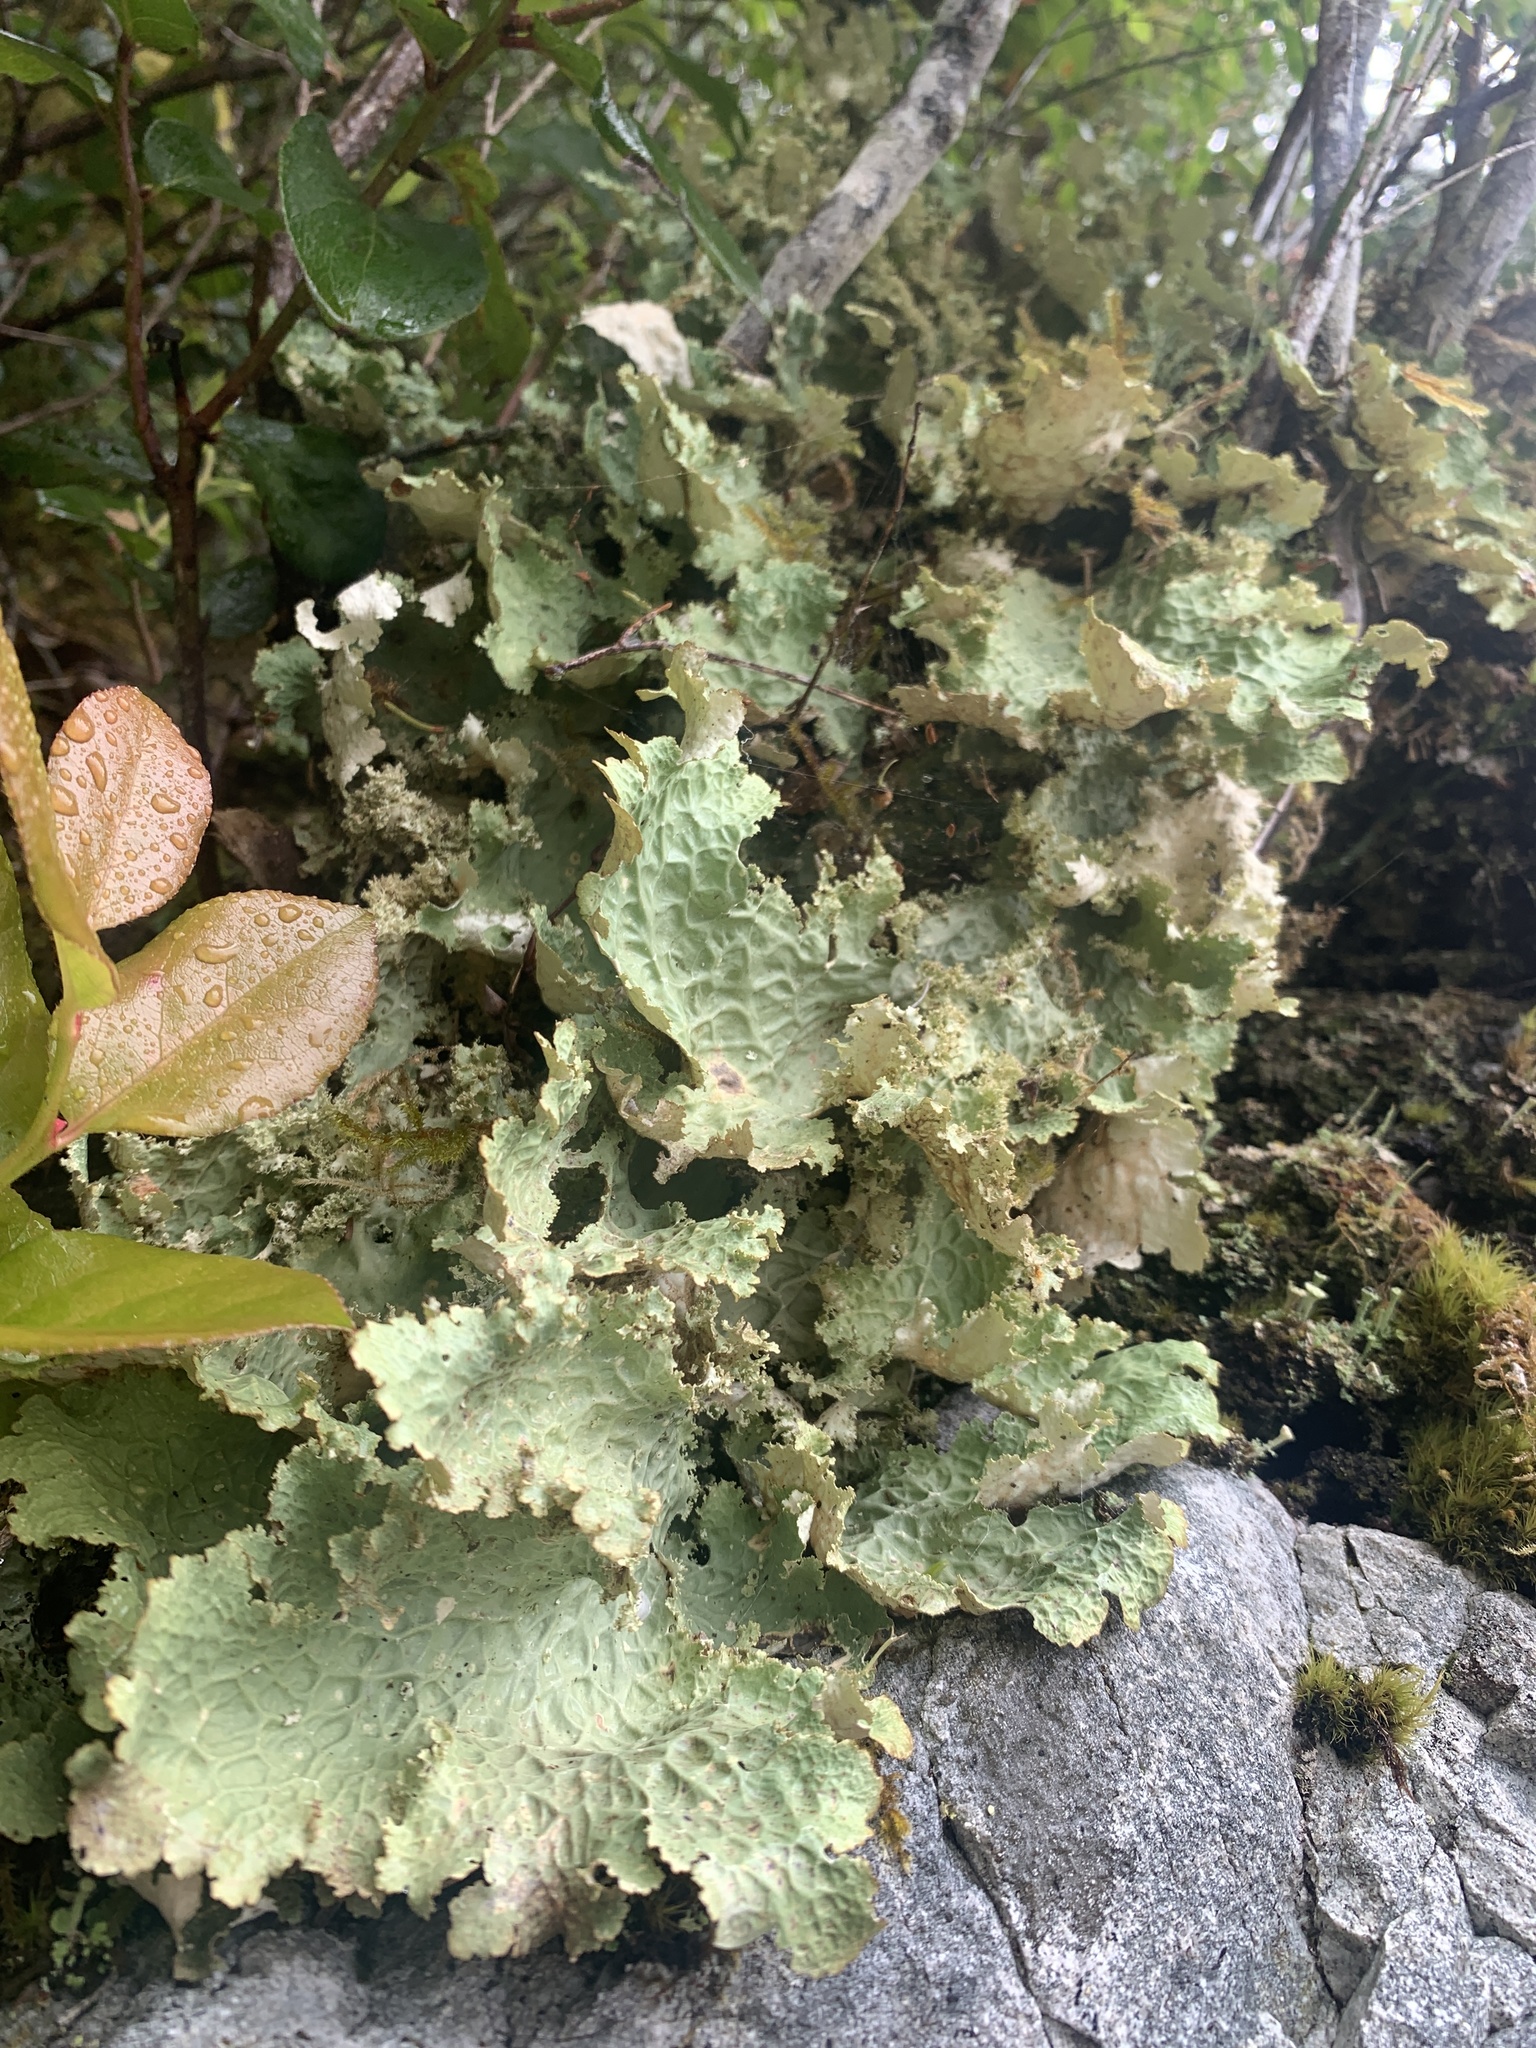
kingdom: Fungi
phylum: Ascomycota
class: Lecanoromycetes
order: Peltigerales
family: Lobariaceae
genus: Lobaria
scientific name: Lobaria oregana
